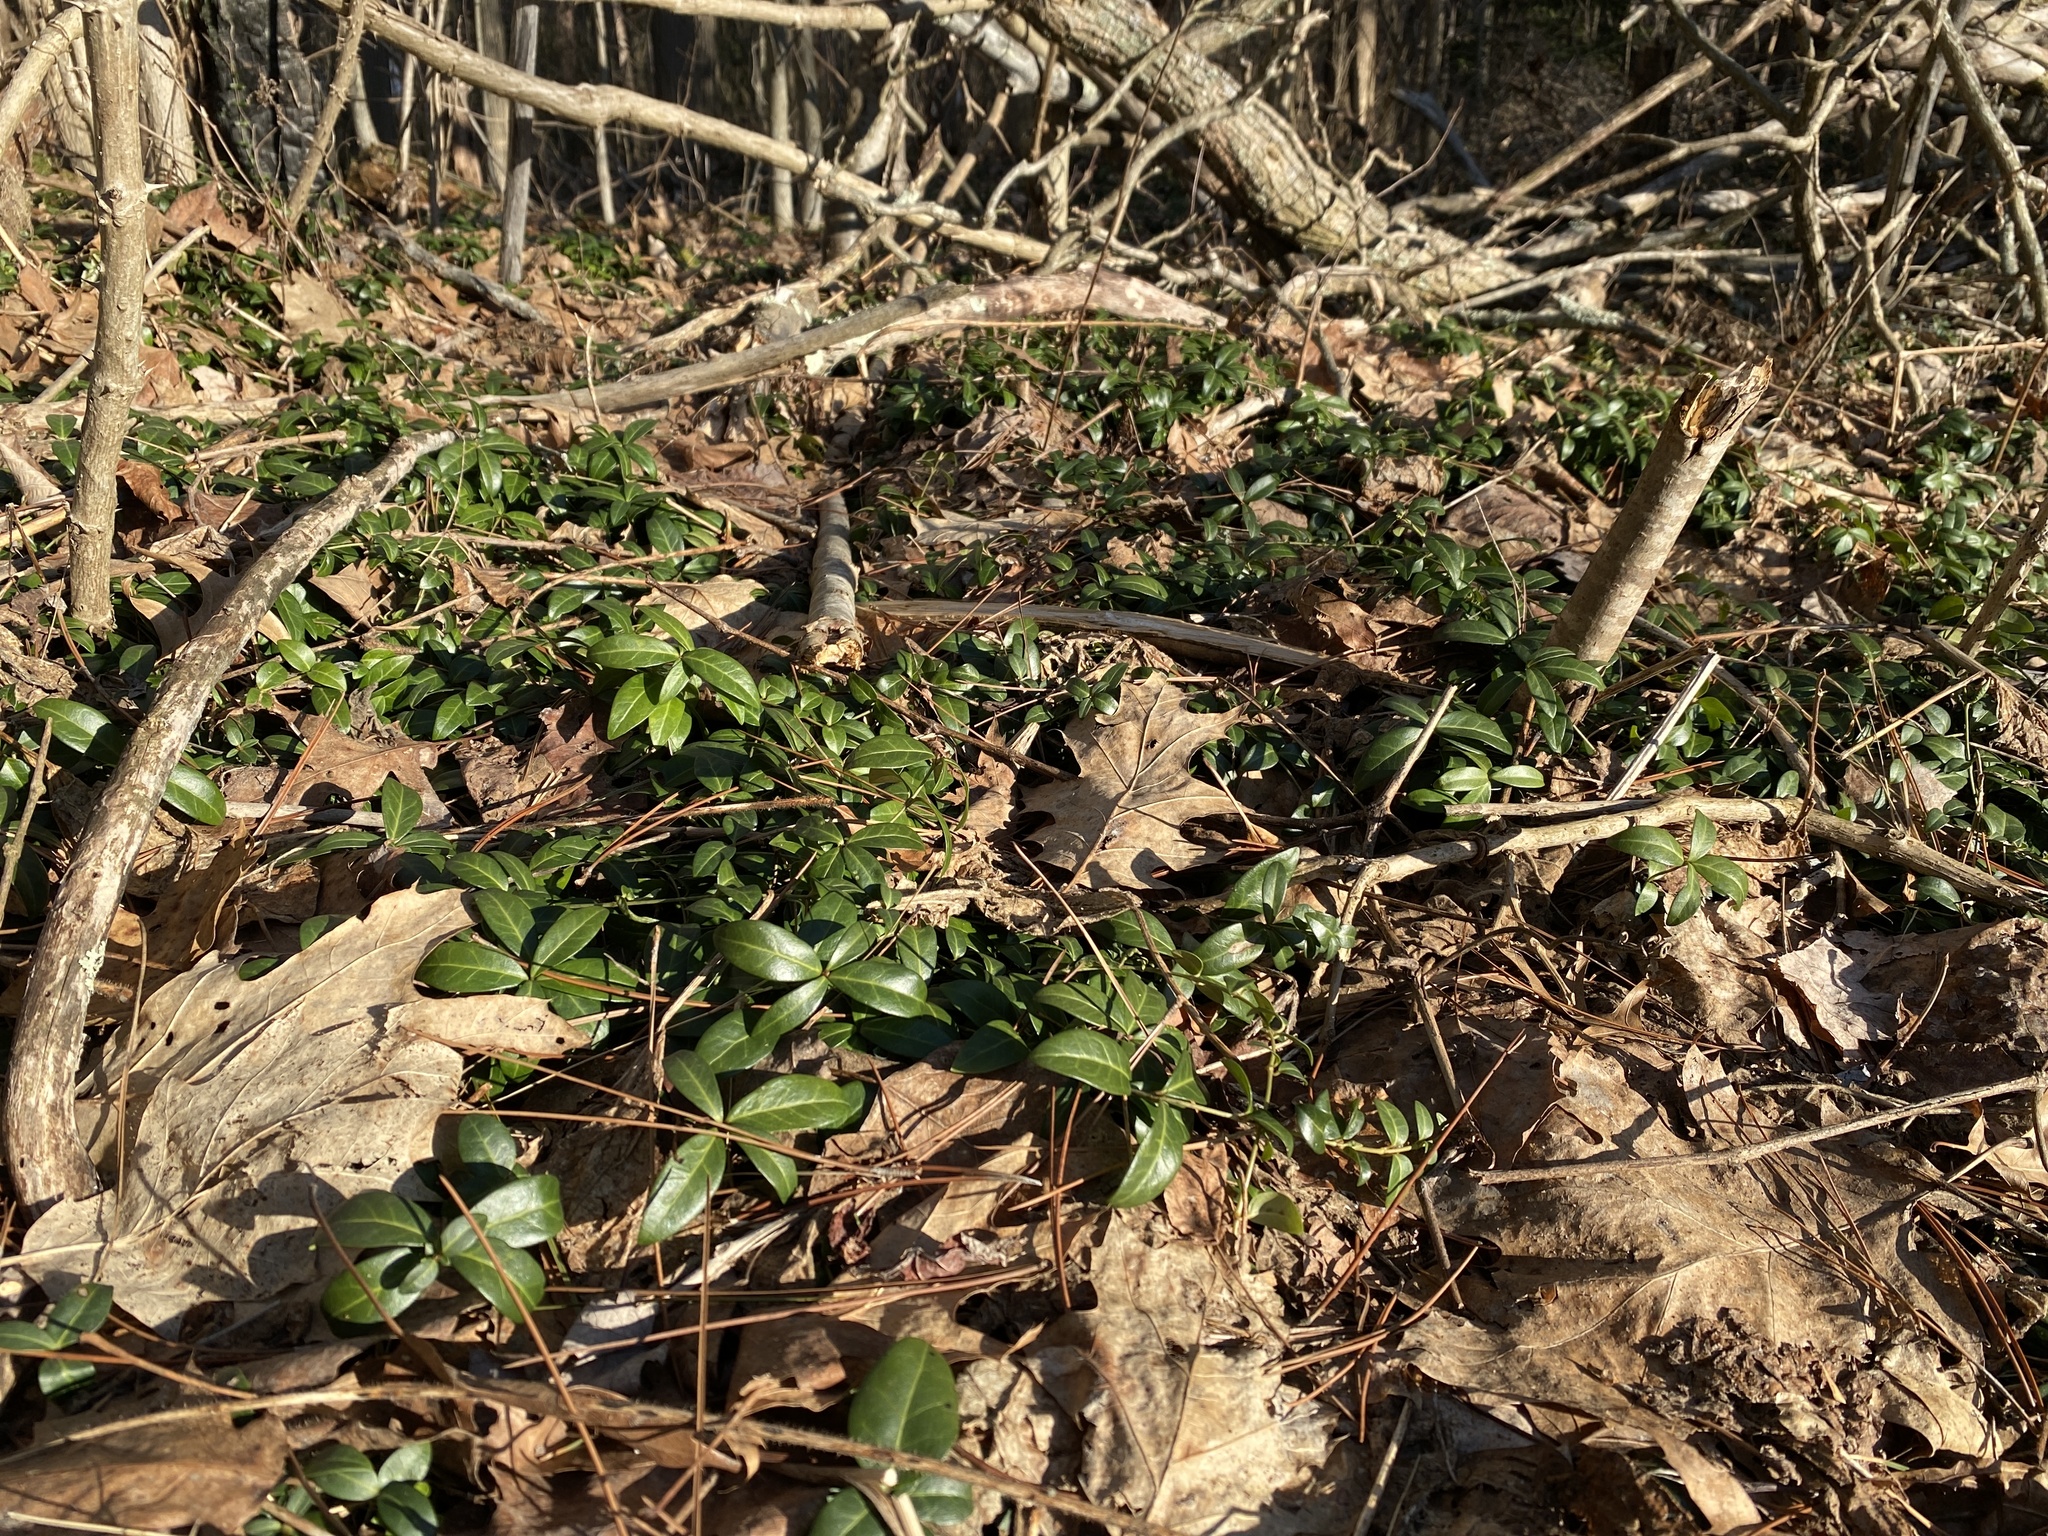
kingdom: Plantae
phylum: Tracheophyta
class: Magnoliopsida
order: Gentianales
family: Apocynaceae
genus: Vinca
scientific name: Vinca minor
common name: Lesser periwinkle
